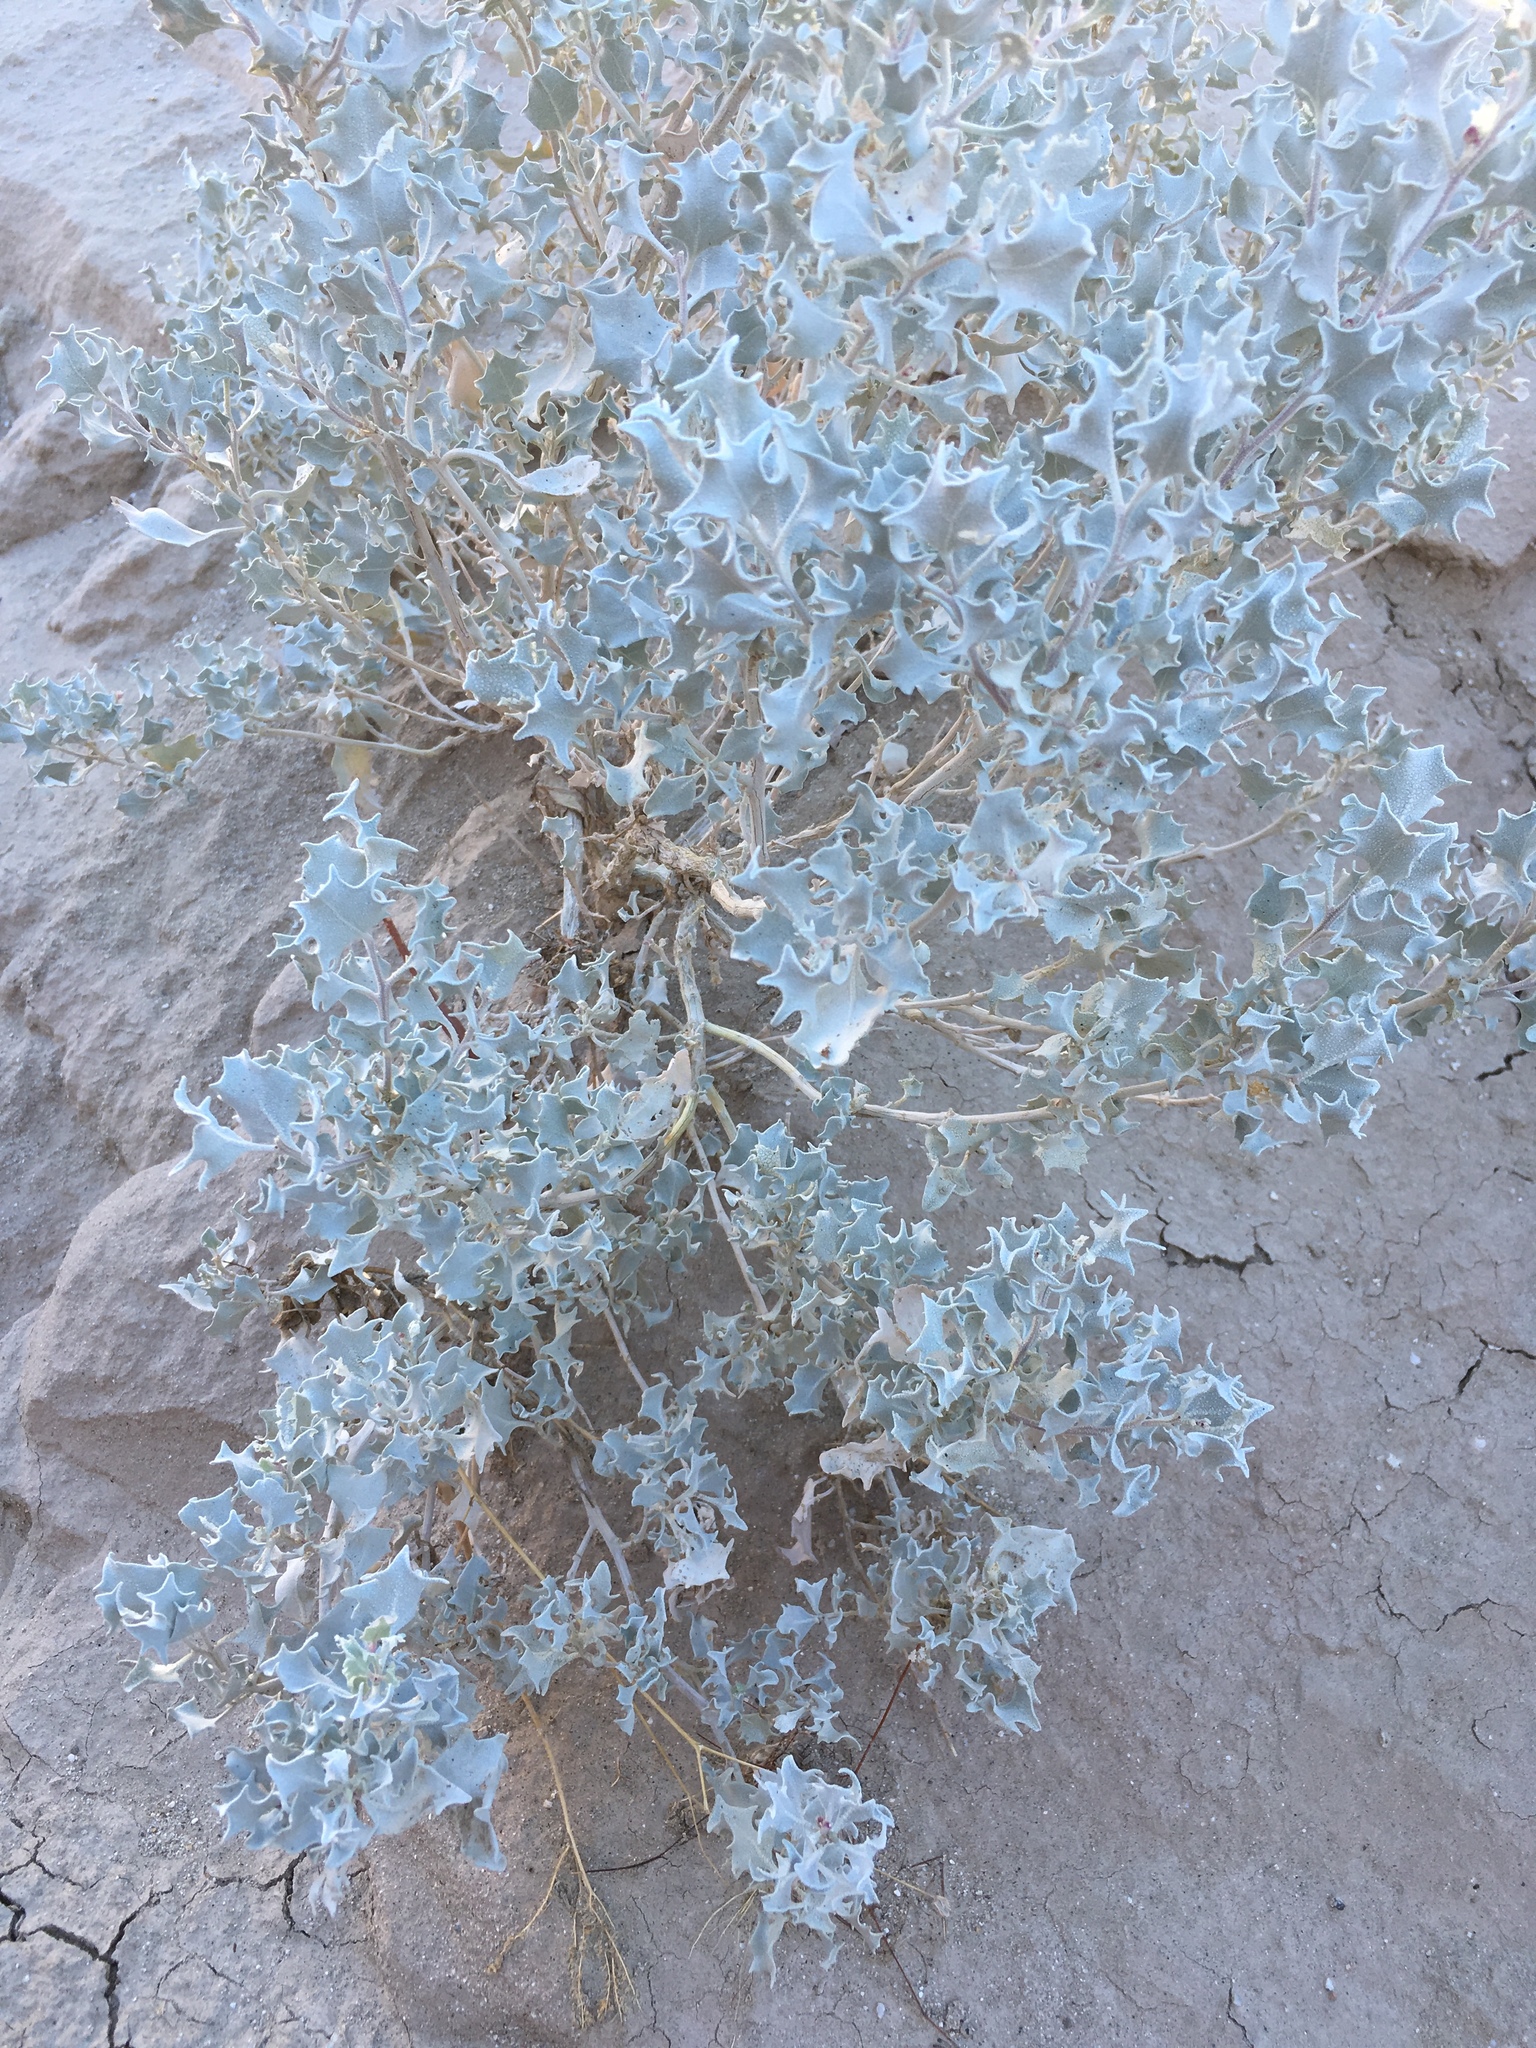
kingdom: Plantae
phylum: Tracheophyta
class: Magnoliopsida
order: Caryophyllales
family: Amaranthaceae
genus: Atriplex
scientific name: Atriplex hymenelytra
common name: Desert-holly
